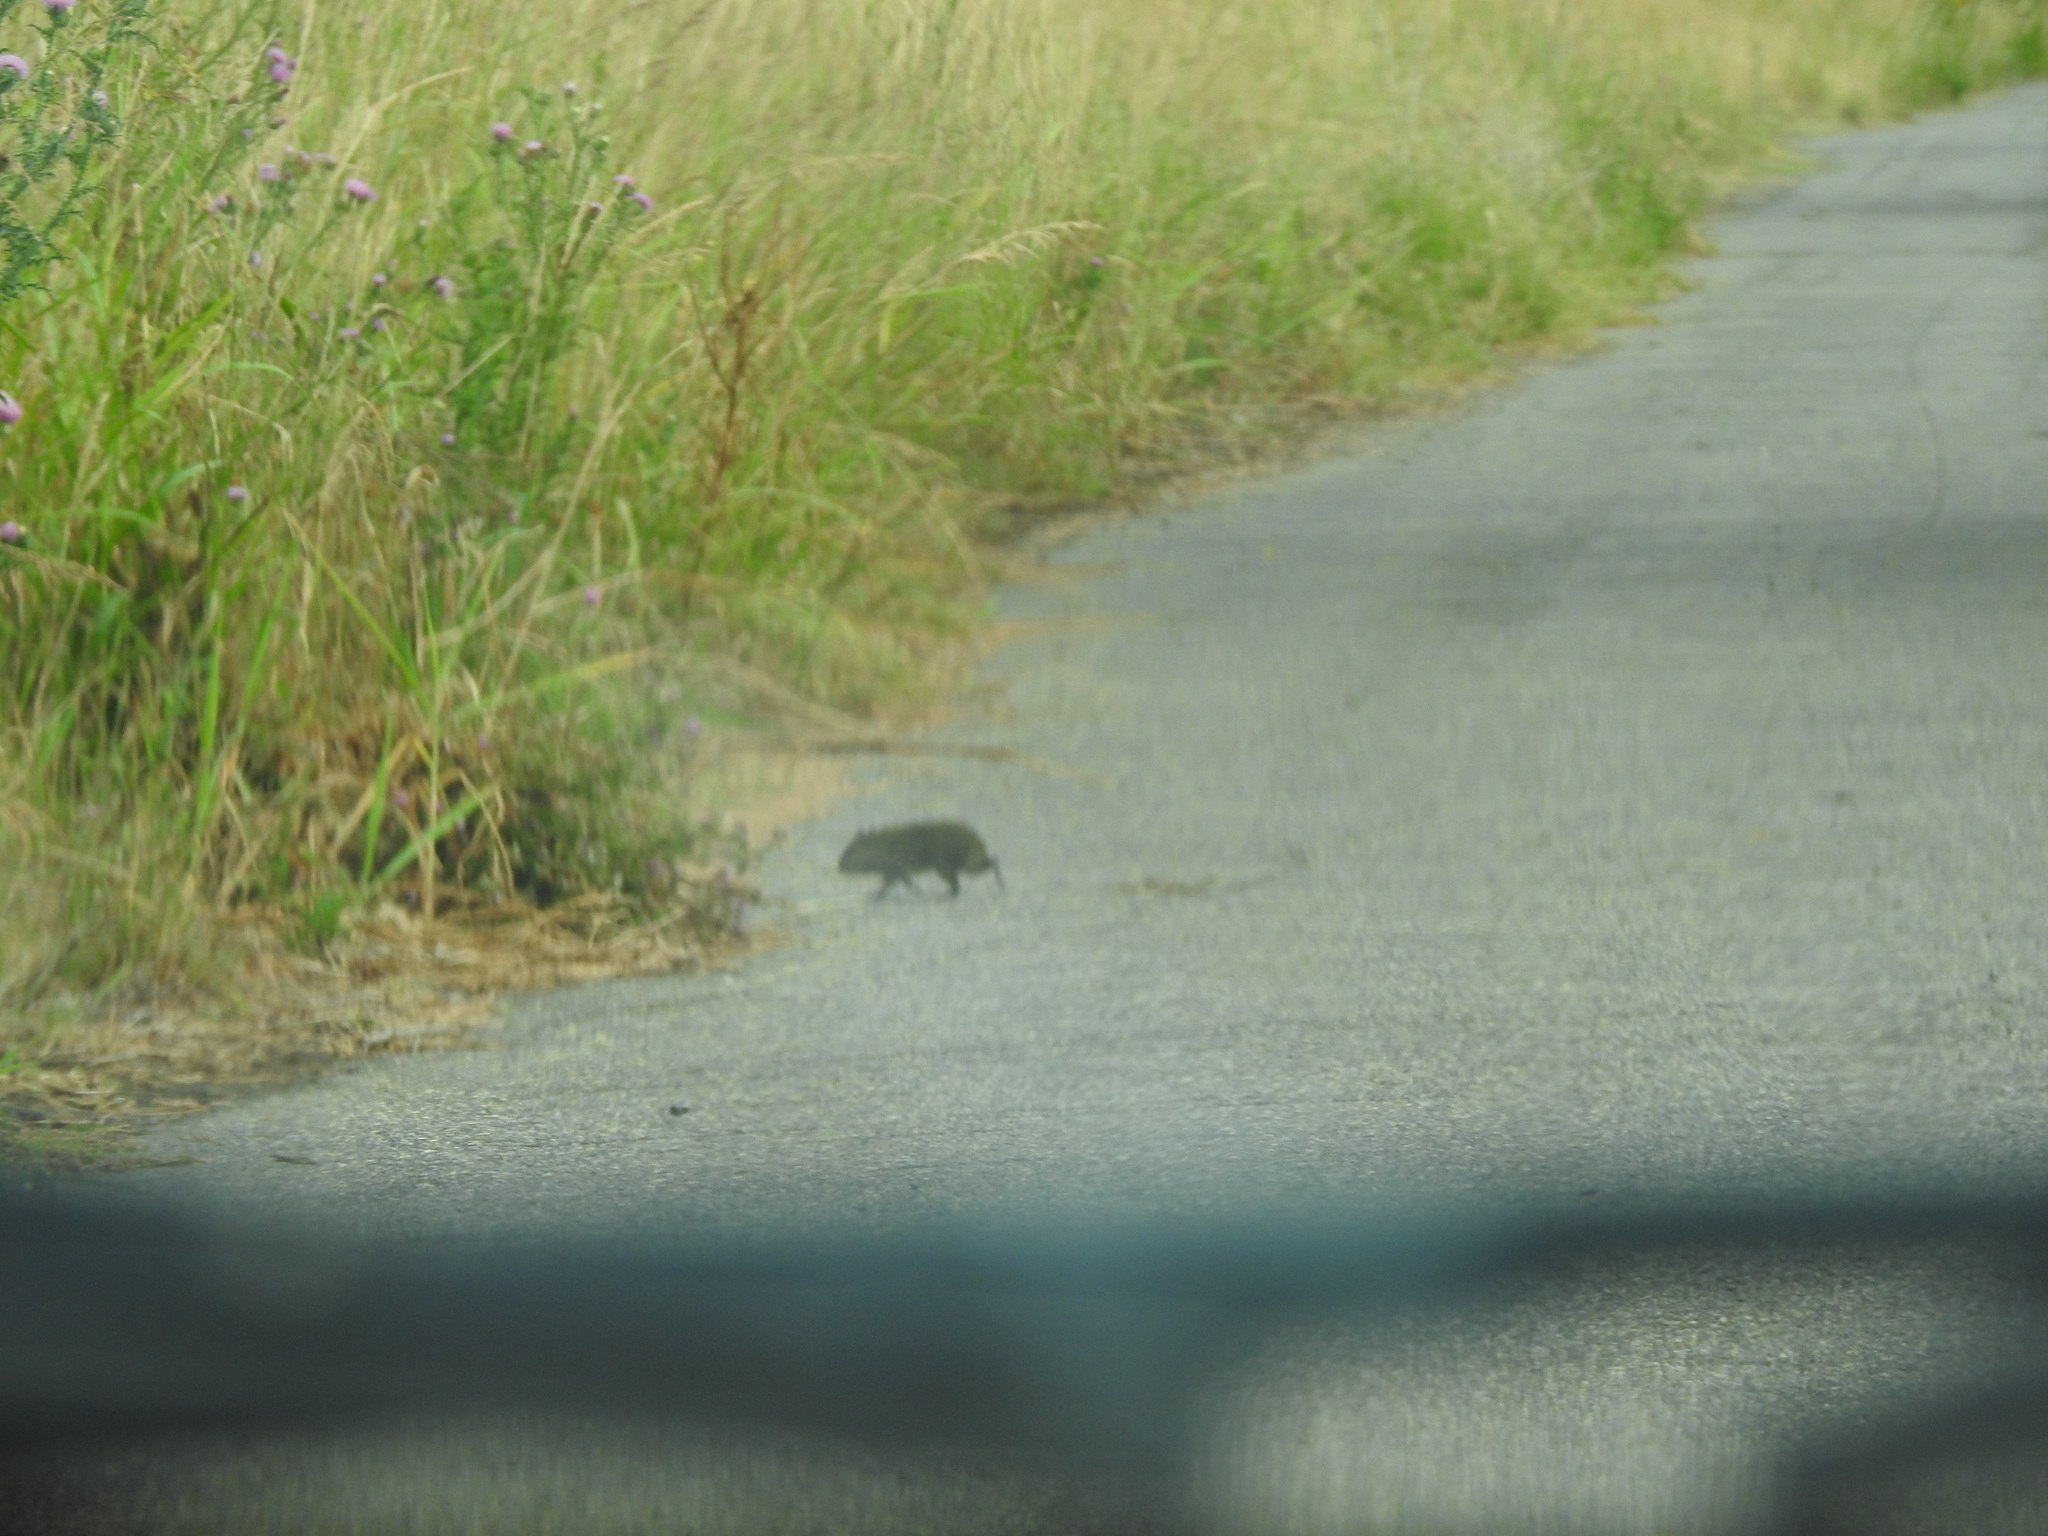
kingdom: Animalia
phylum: Chordata
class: Mammalia
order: Rodentia
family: Caviidae
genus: Cavia
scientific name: Cavia aperea
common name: Brazilian guinea pig
